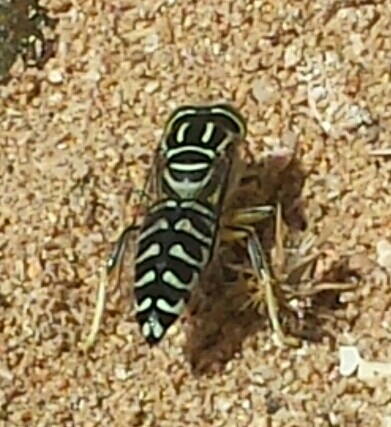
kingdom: Animalia
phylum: Arthropoda
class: Insecta
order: Hymenoptera
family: Crabronidae
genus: Stictia
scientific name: Stictia signata
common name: Sand wasp
